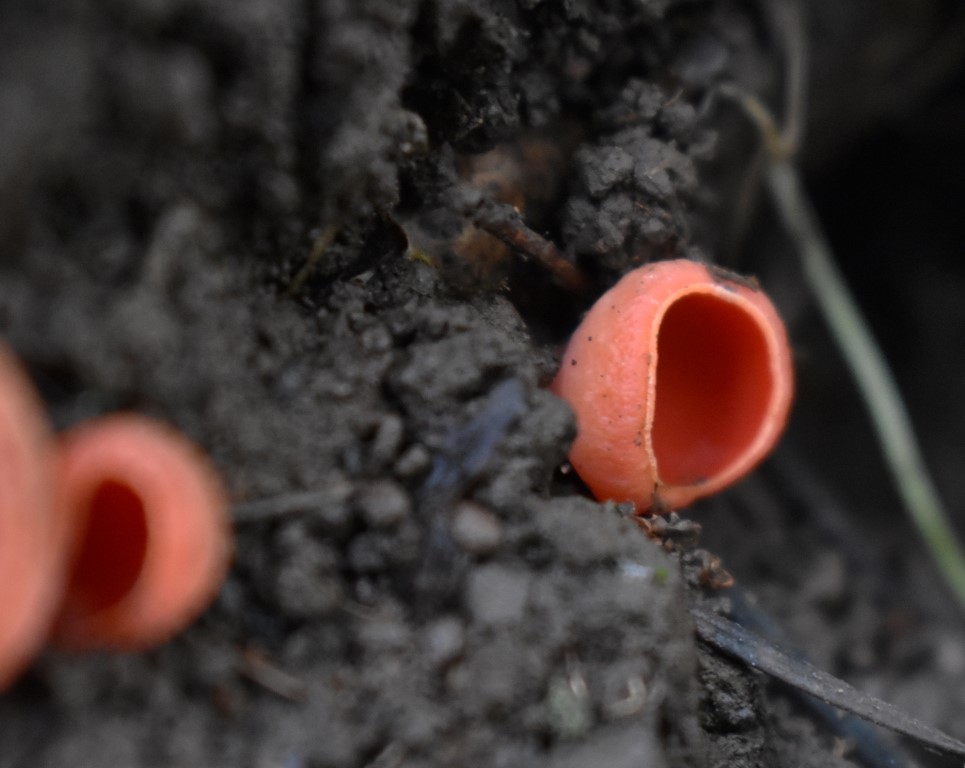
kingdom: Fungi
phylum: Ascomycota
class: Pezizomycetes
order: Pezizales
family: Sarcoscyphaceae
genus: Sarcoscypha
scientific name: Sarcoscypha coccinea
